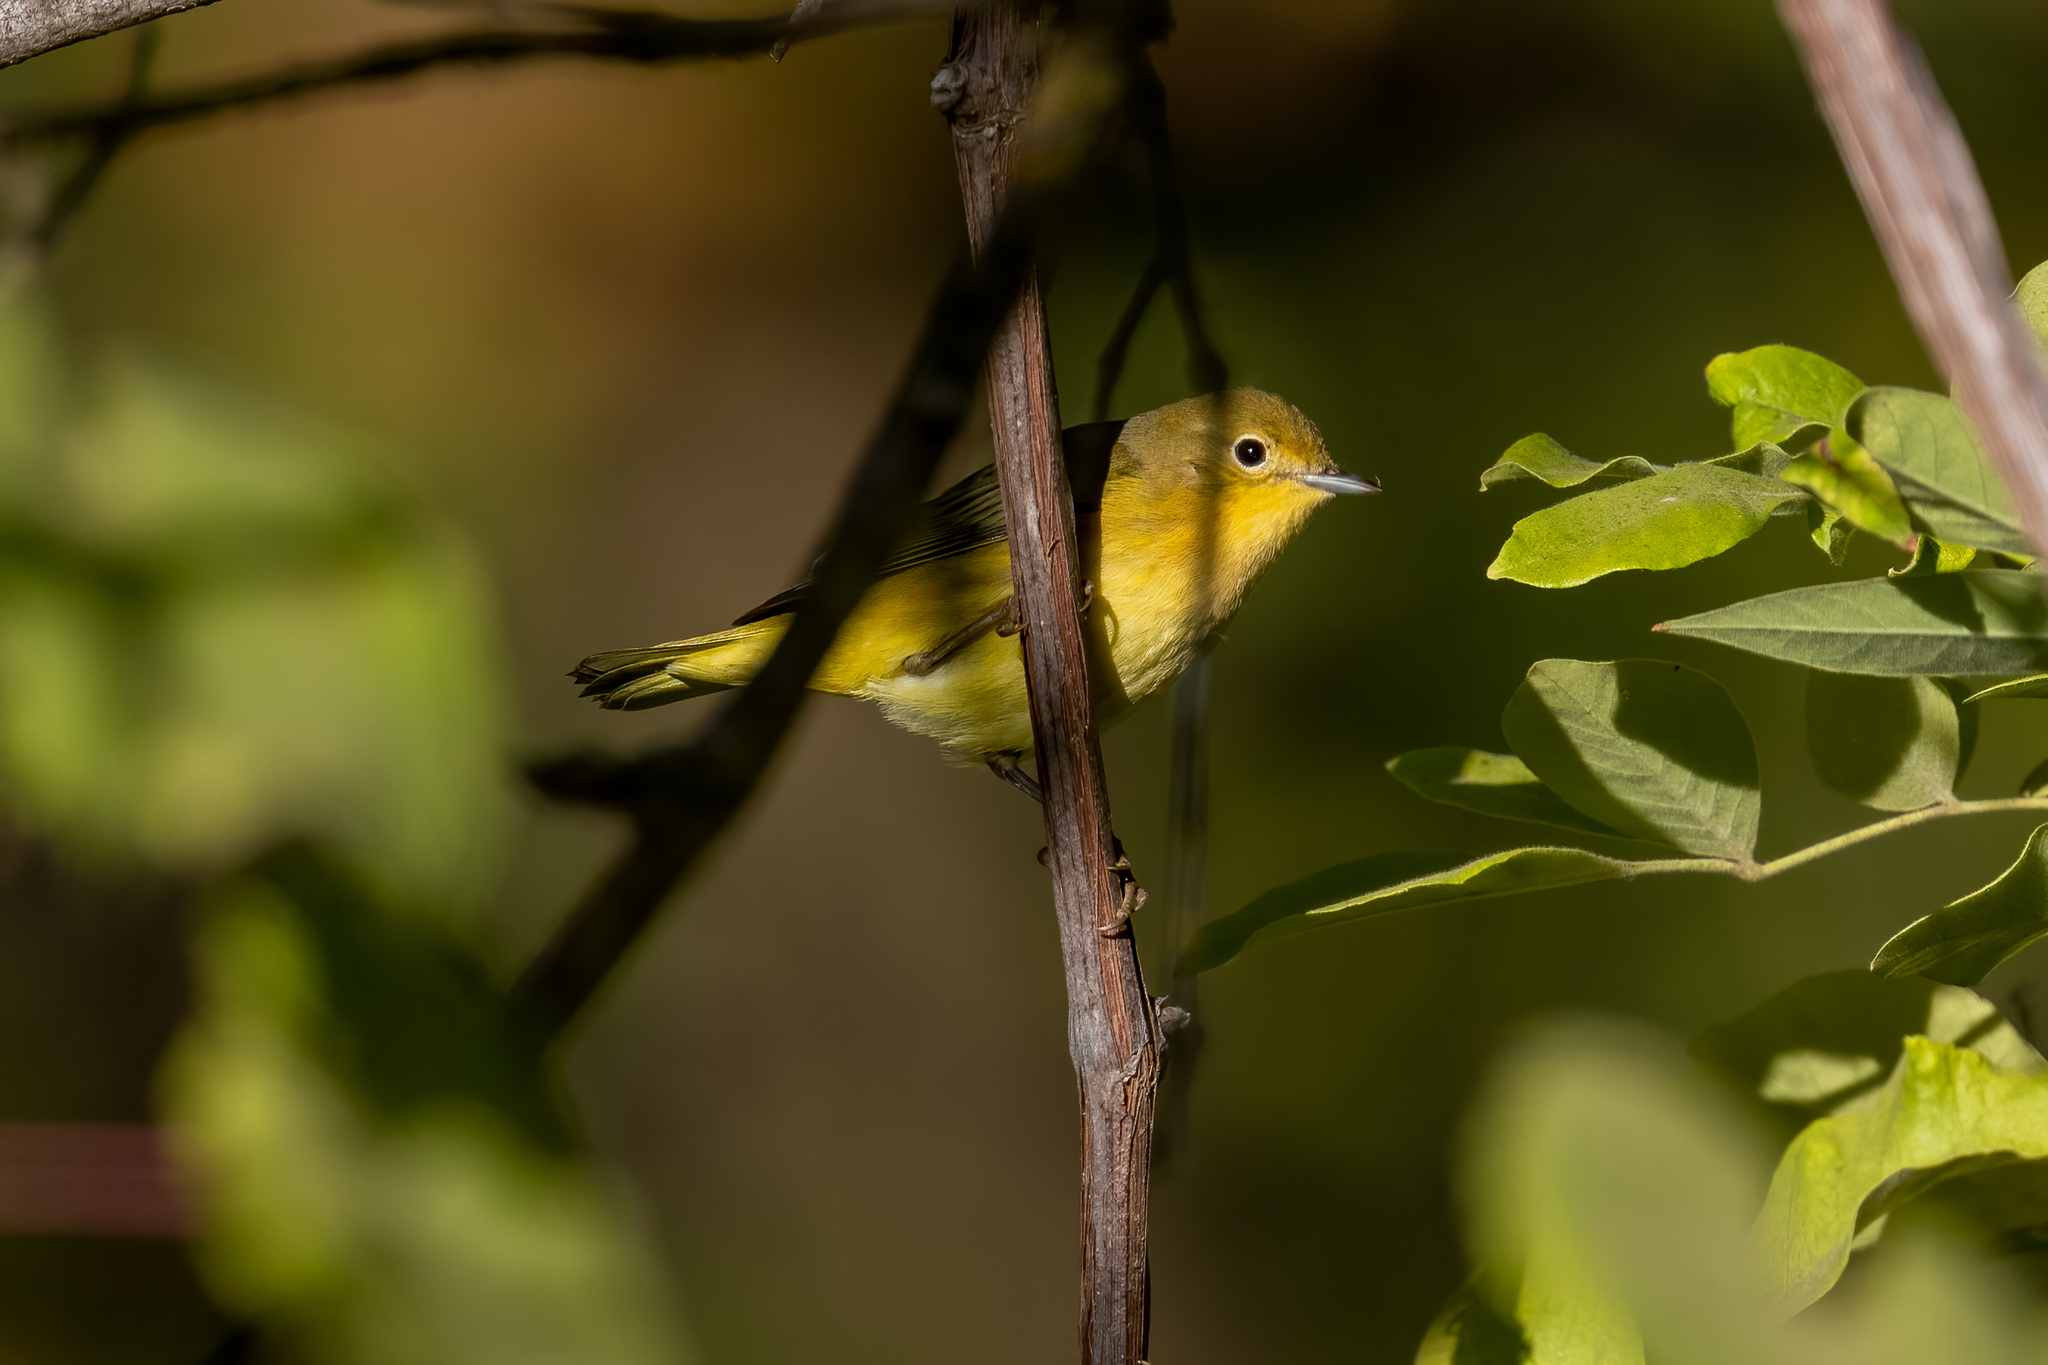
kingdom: Animalia
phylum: Chordata
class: Aves
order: Passeriformes
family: Parulidae
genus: Setophaga
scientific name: Setophaga petechia
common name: Yellow warbler
